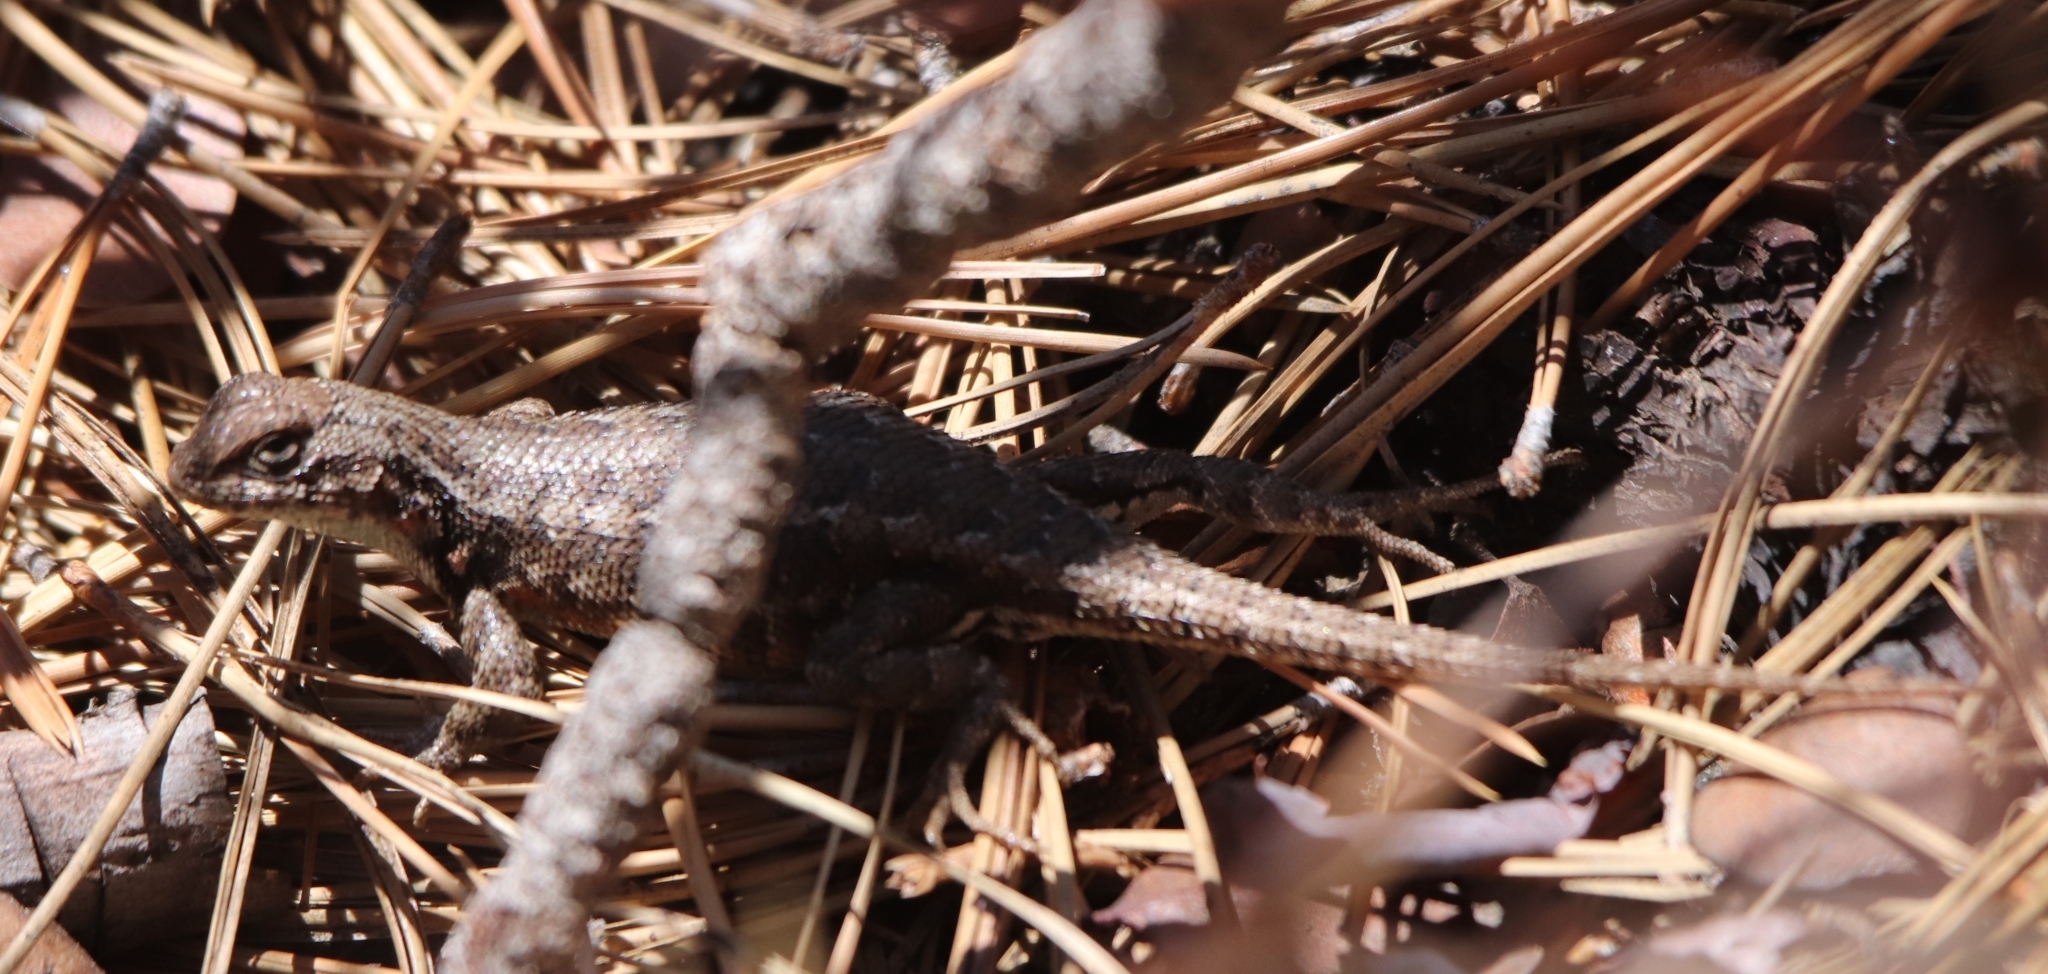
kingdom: Animalia
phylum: Chordata
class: Squamata
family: Phrynosomatidae
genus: Sceloporus
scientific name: Sceloporus graciosus
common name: Sagebrush lizard
